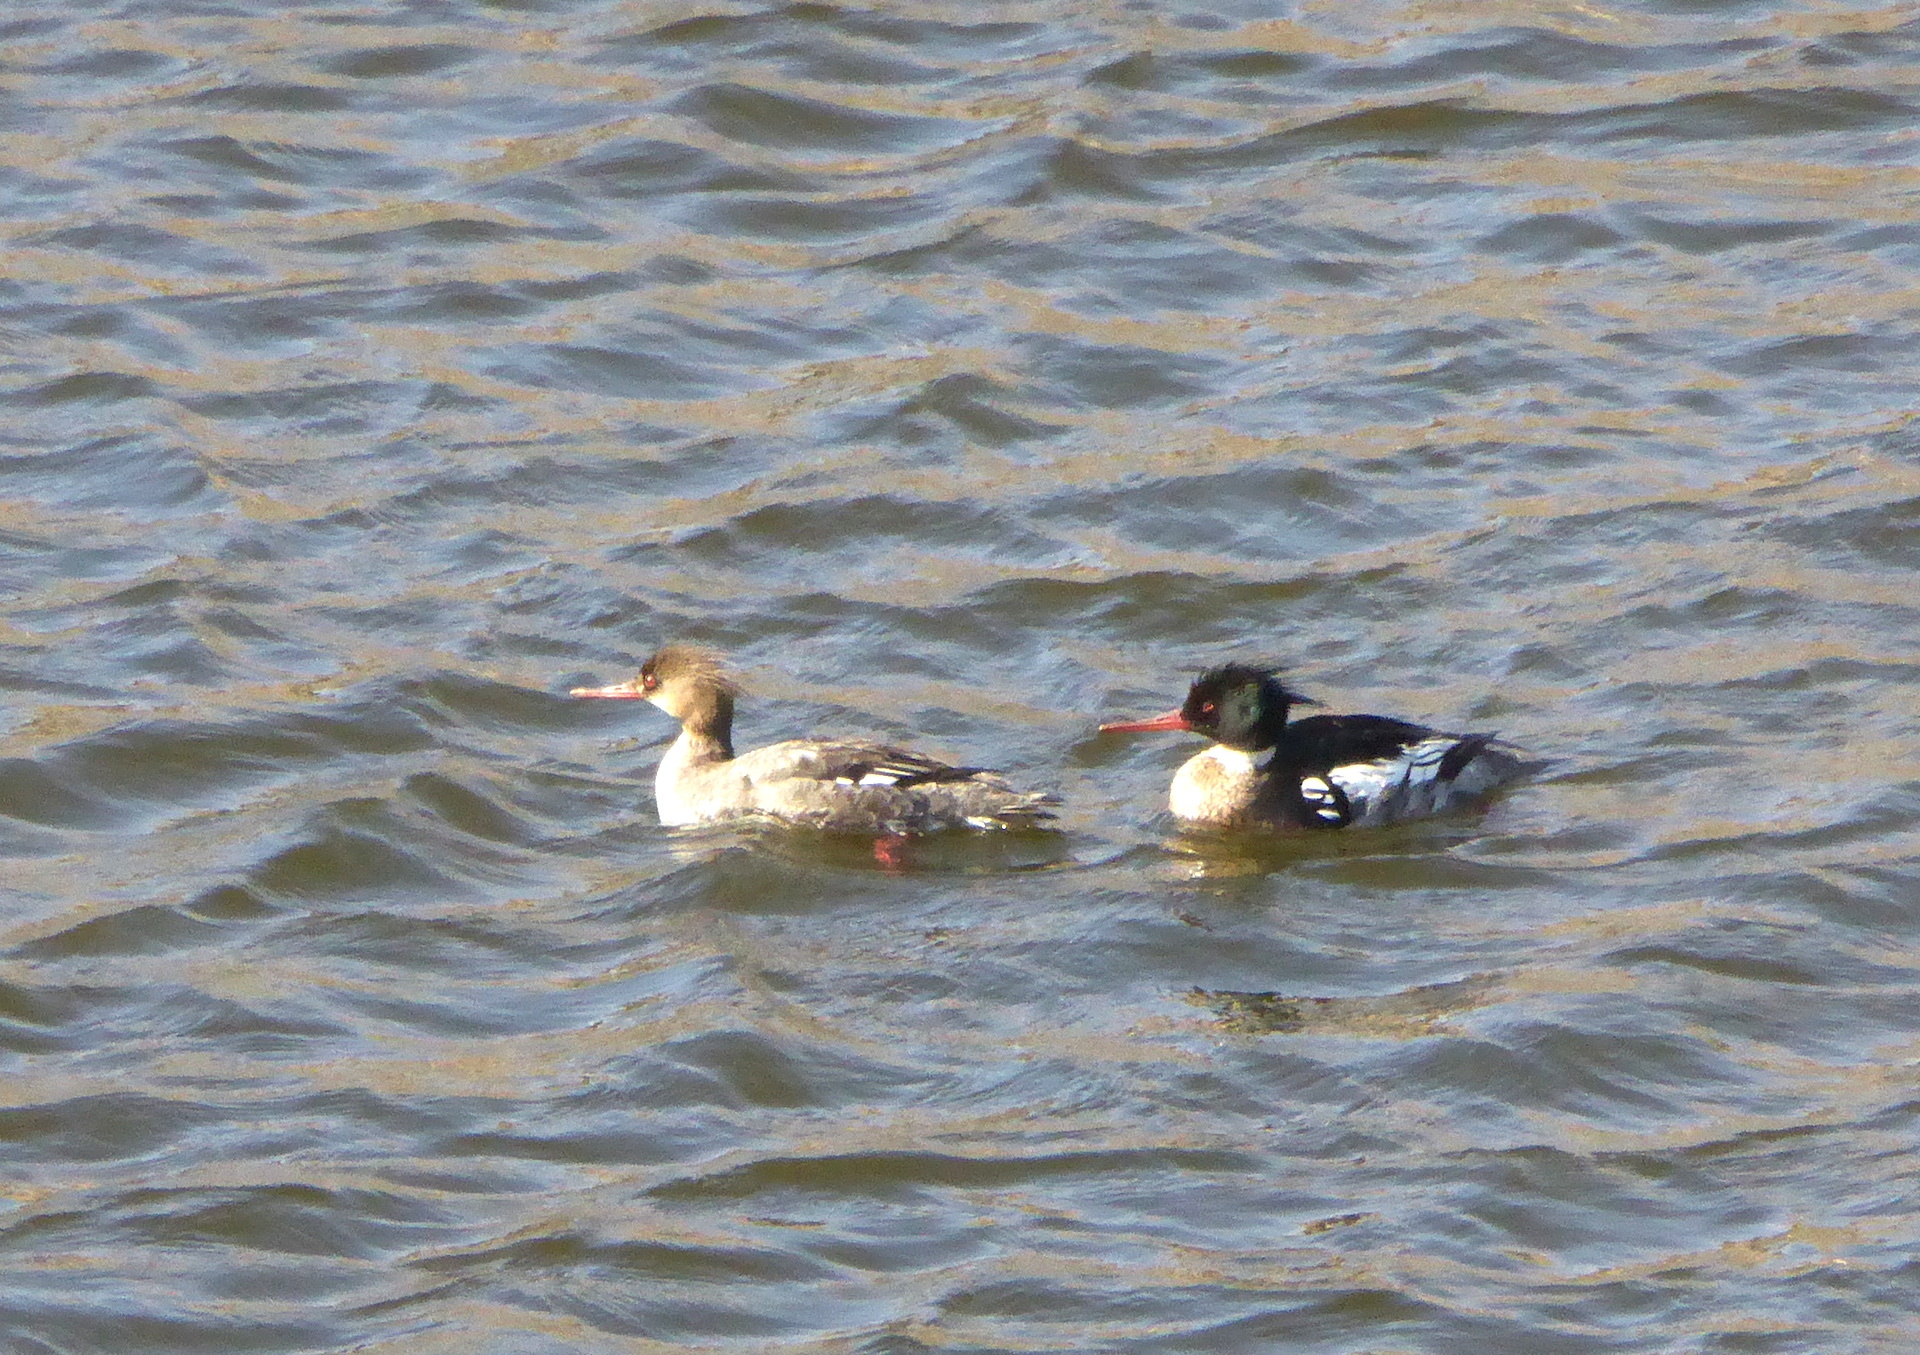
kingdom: Animalia
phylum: Chordata
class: Aves
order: Anseriformes
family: Anatidae
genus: Mergus
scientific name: Mergus serrator
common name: Red-breasted merganser
